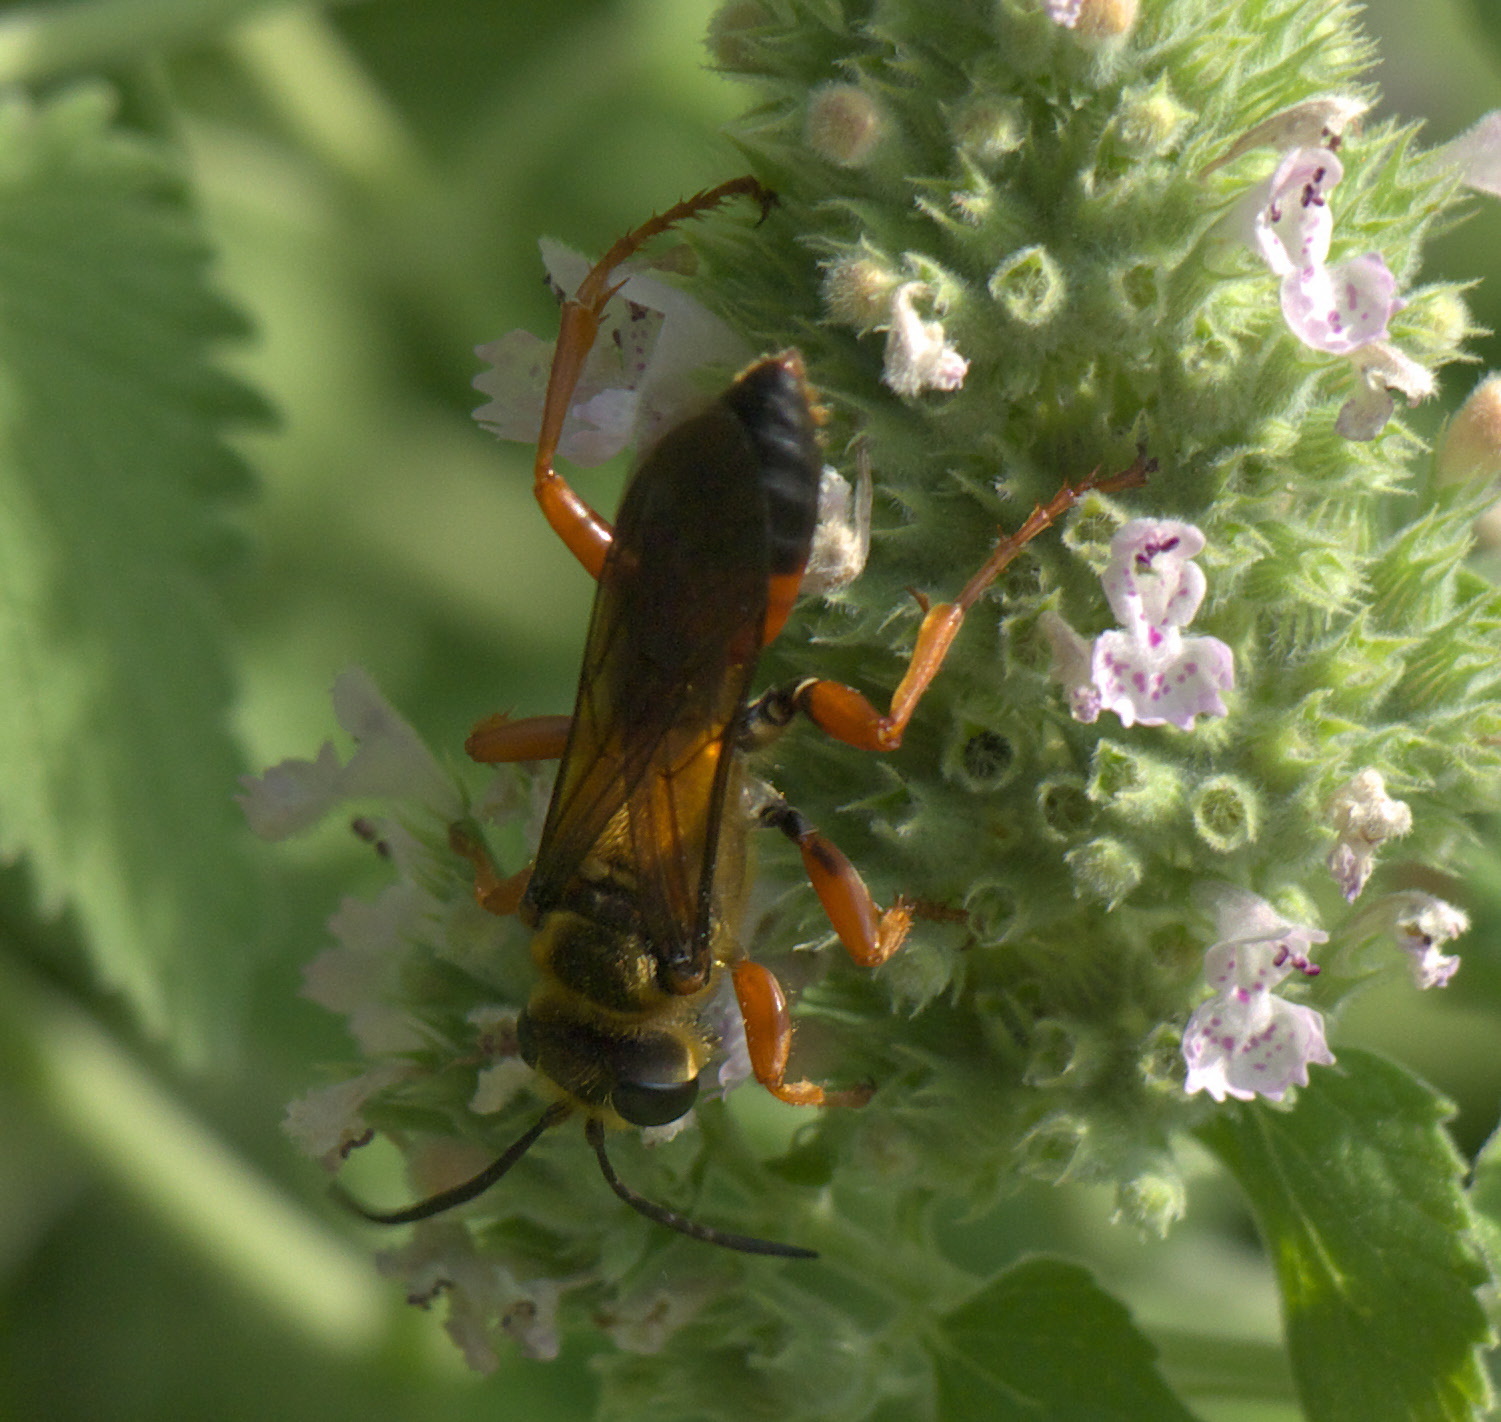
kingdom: Animalia
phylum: Arthropoda
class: Insecta
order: Hymenoptera
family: Sphecidae
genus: Sphex
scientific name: Sphex ichneumoneus
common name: Great golden digger wasp
